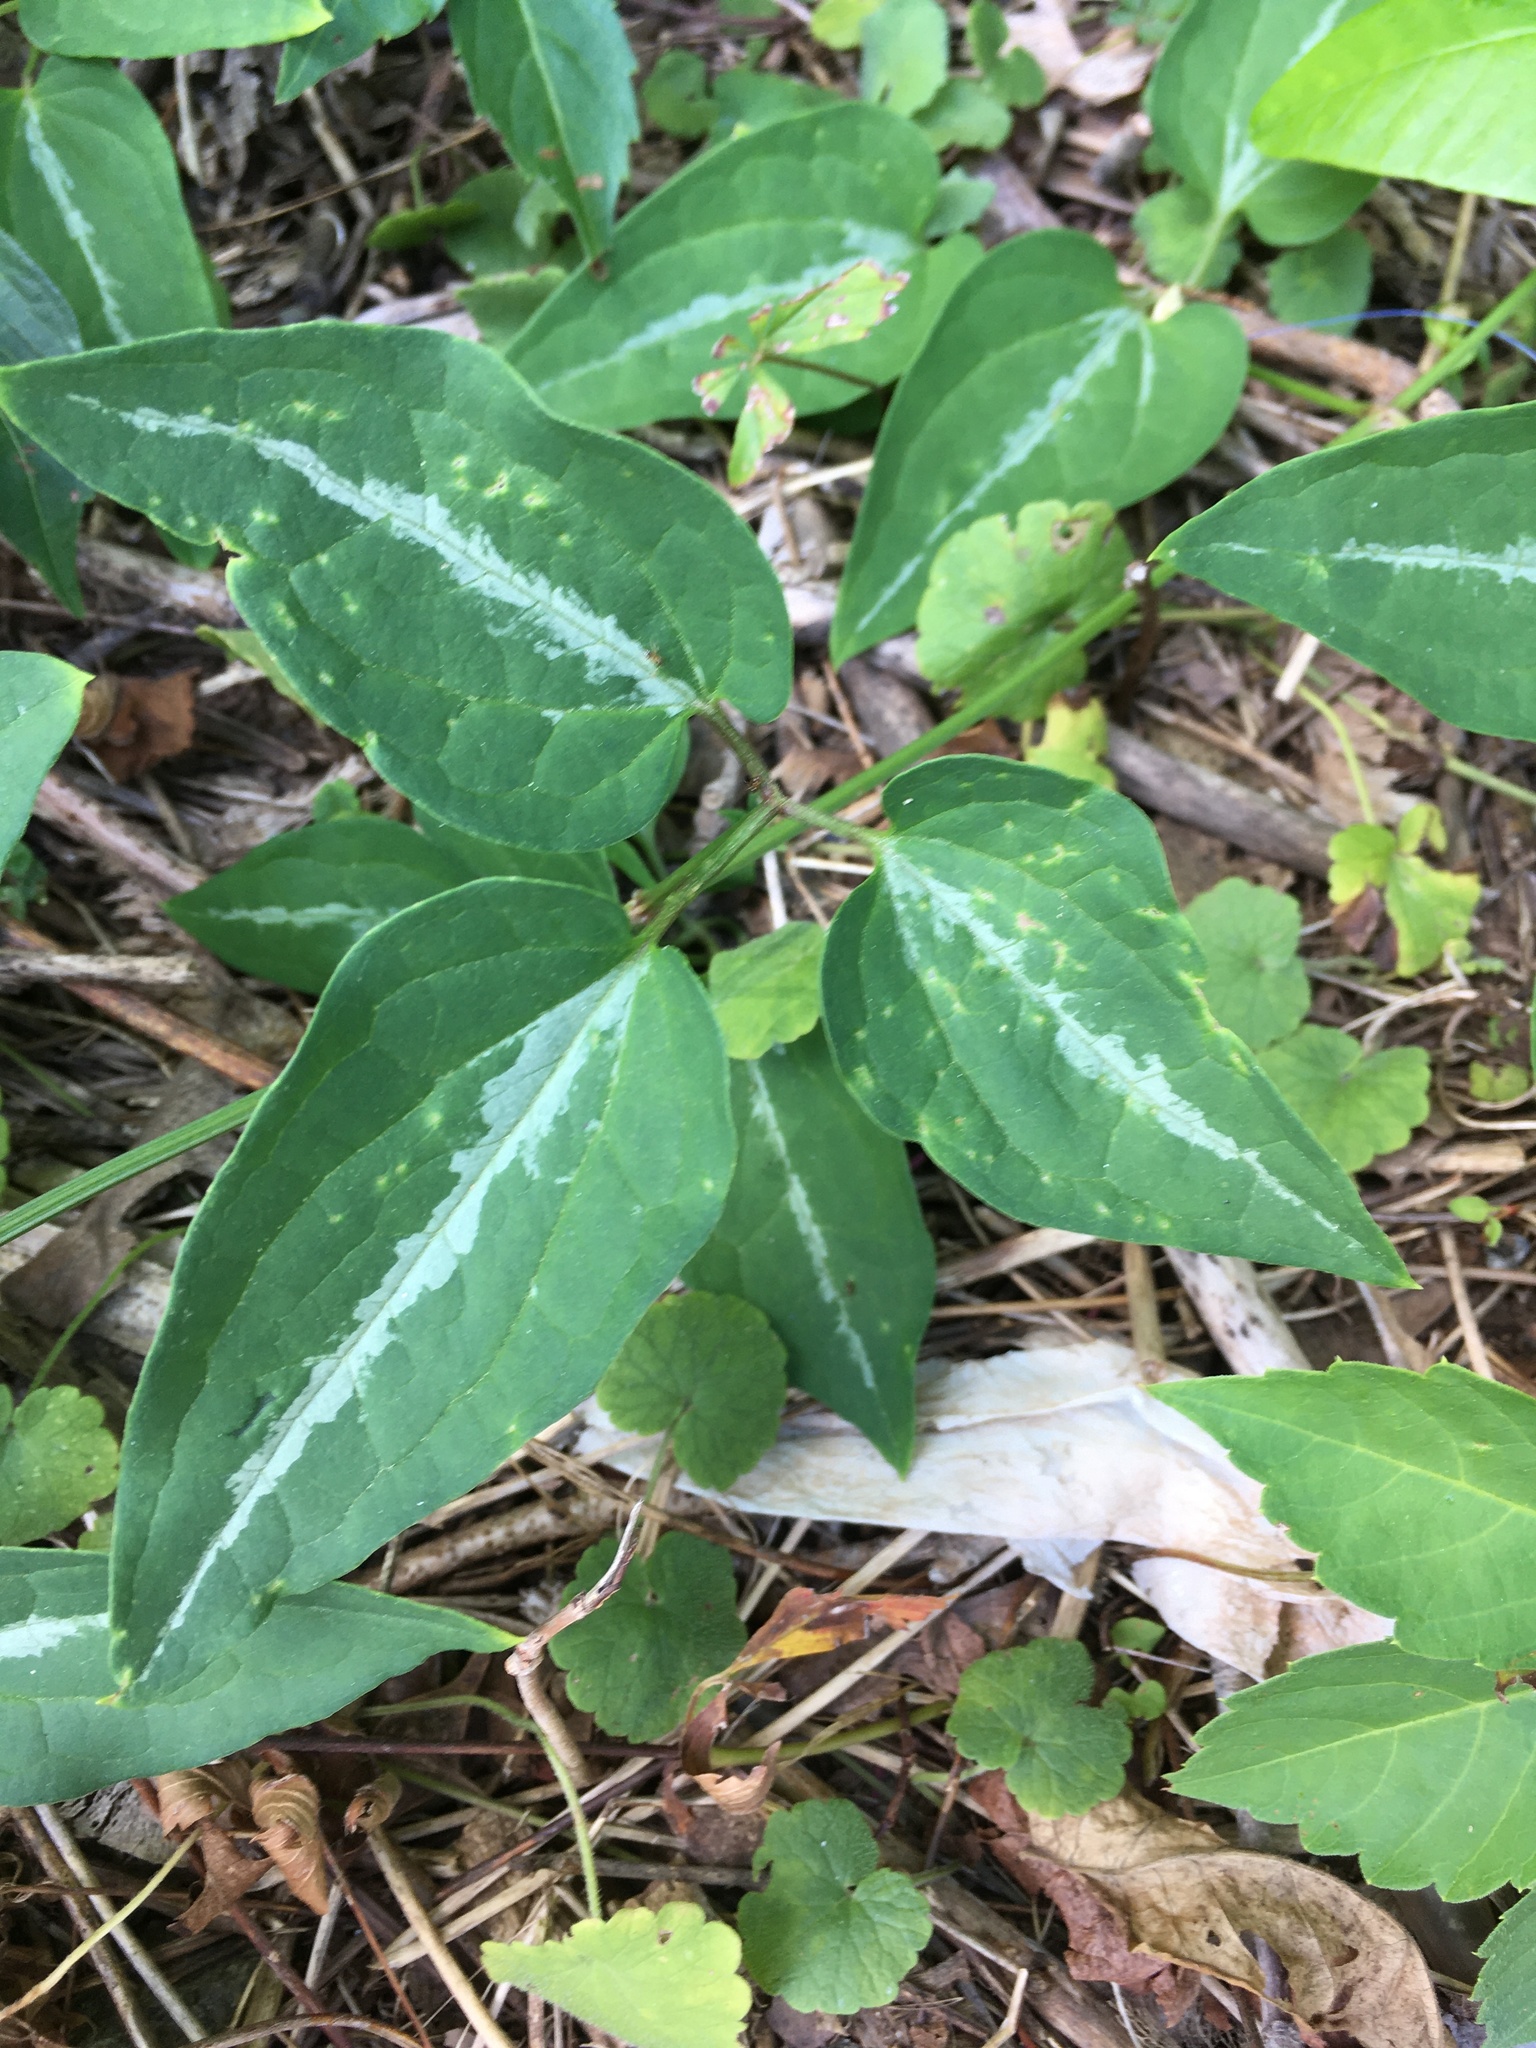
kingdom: Plantae
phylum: Tracheophyta
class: Magnoliopsida
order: Ranunculales
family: Ranunculaceae
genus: Clematis
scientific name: Clematis terniflora
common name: Sweet autumn clematis
